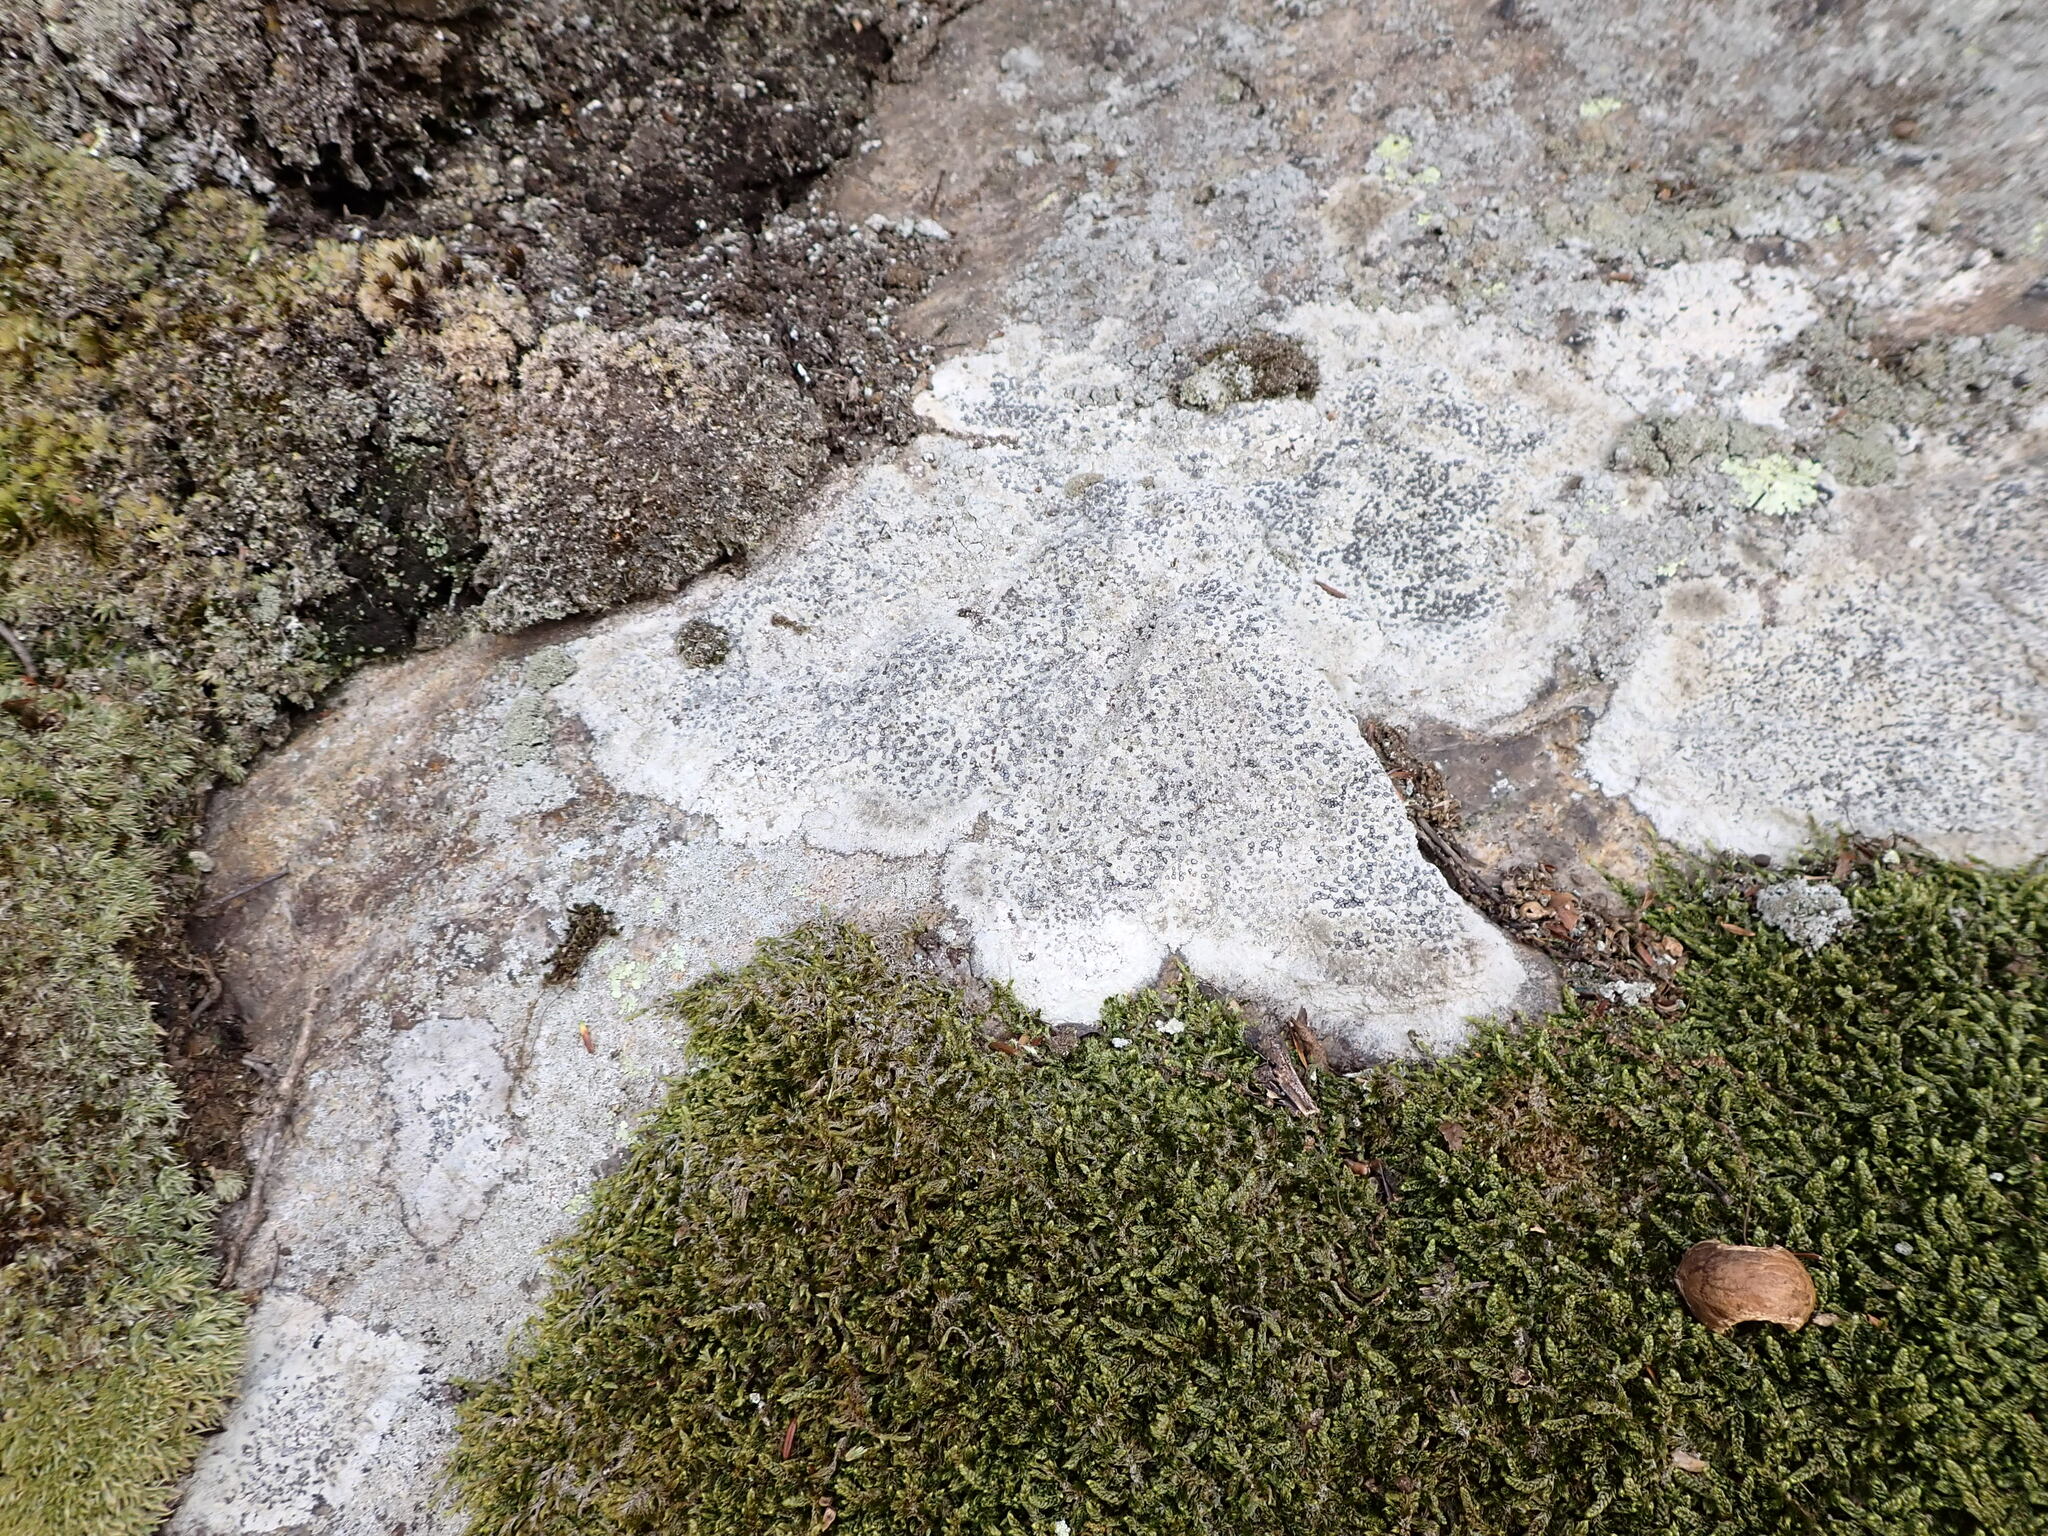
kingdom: Fungi
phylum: Ascomycota
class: Lecanoromycetes
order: Lecideales
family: Lecideaceae
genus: Porpidia
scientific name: Porpidia albocaerulescens
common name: Smokey-eyed boulder lichen
